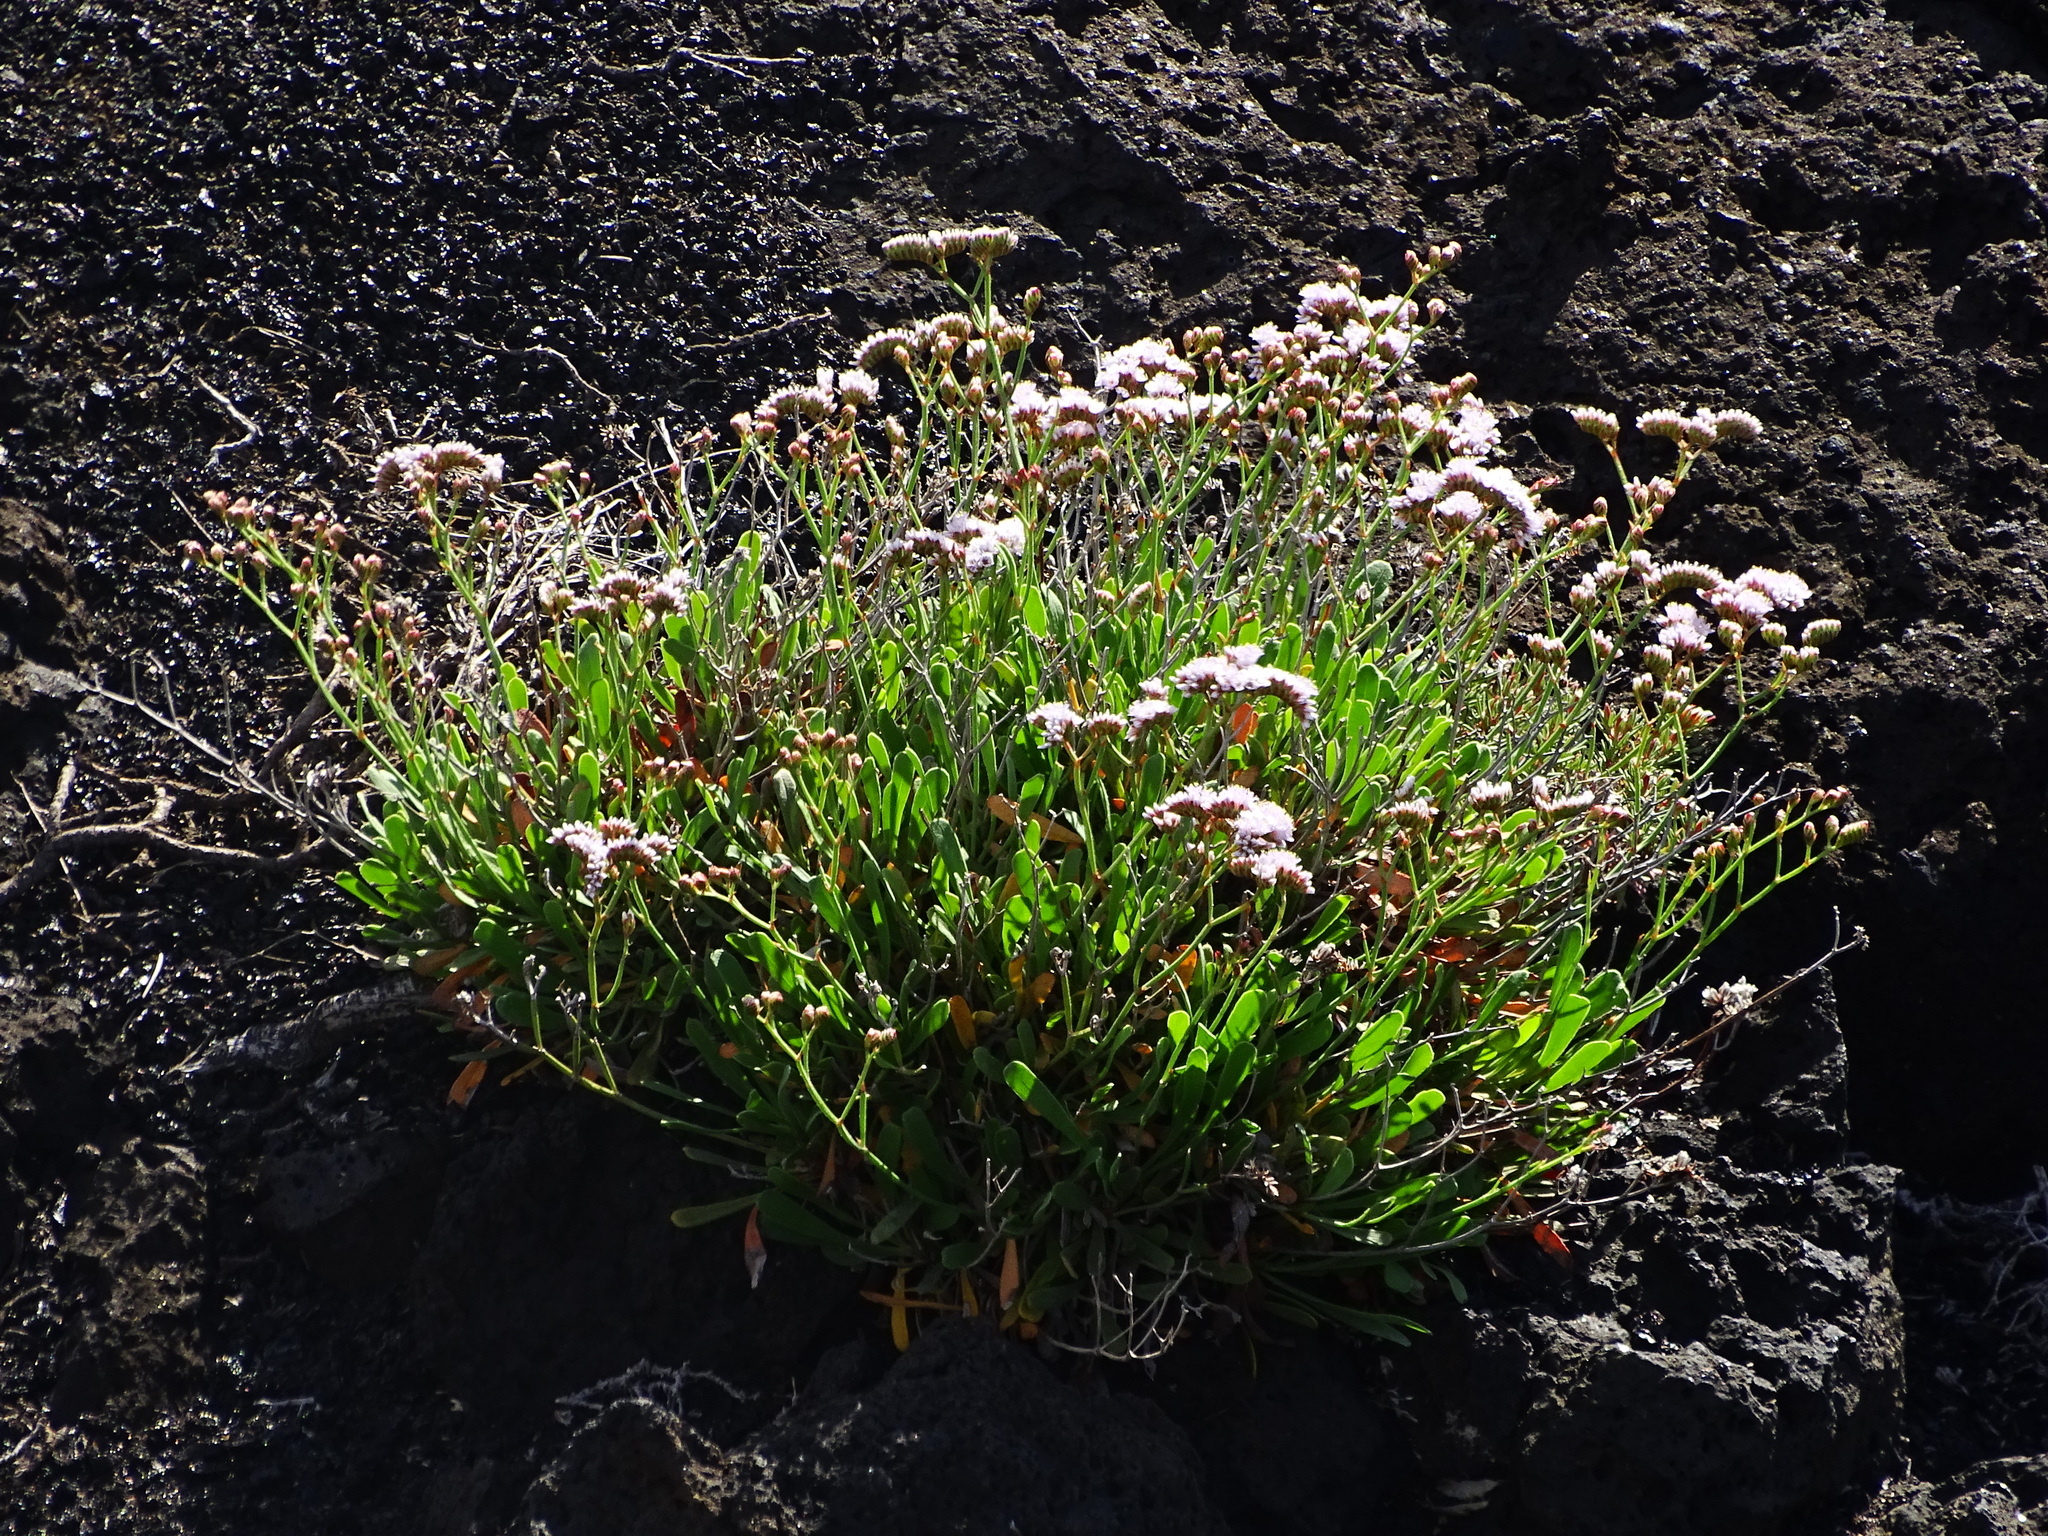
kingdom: Plantae
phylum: Tracheophyta
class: Magnoliopsida
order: Caryophyllales
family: Plumbaginaceae
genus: Limonium
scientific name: Limonium pectinatum
